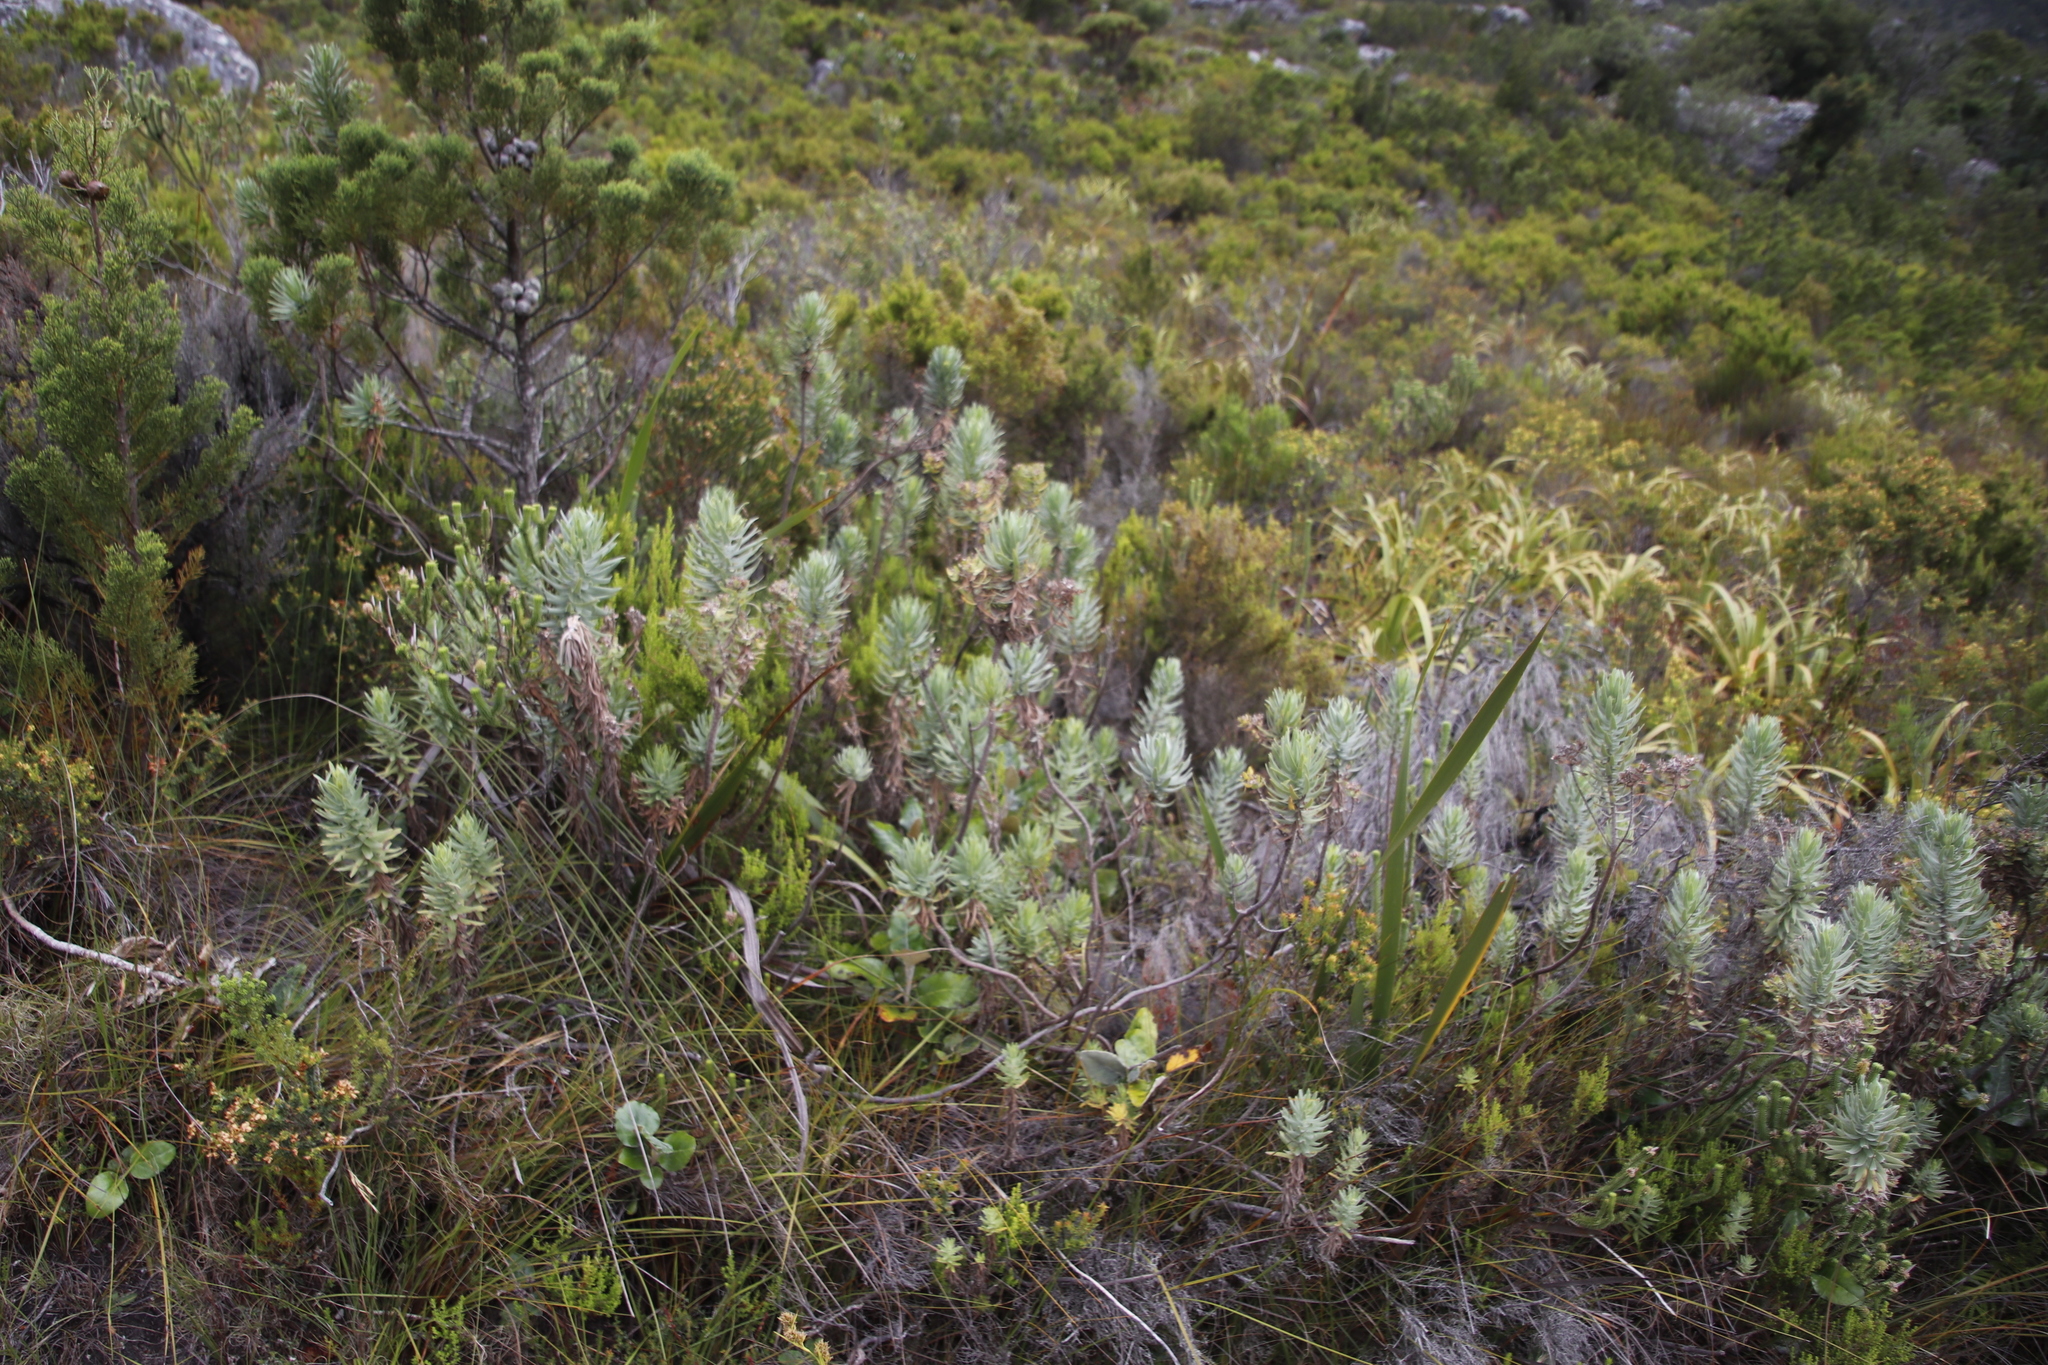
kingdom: Plantae
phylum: Tracheophyta
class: Magnoliopsida
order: Asterales
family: Asteraceae
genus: Osmitopsis
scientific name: Osmitopsis asteriscoides
